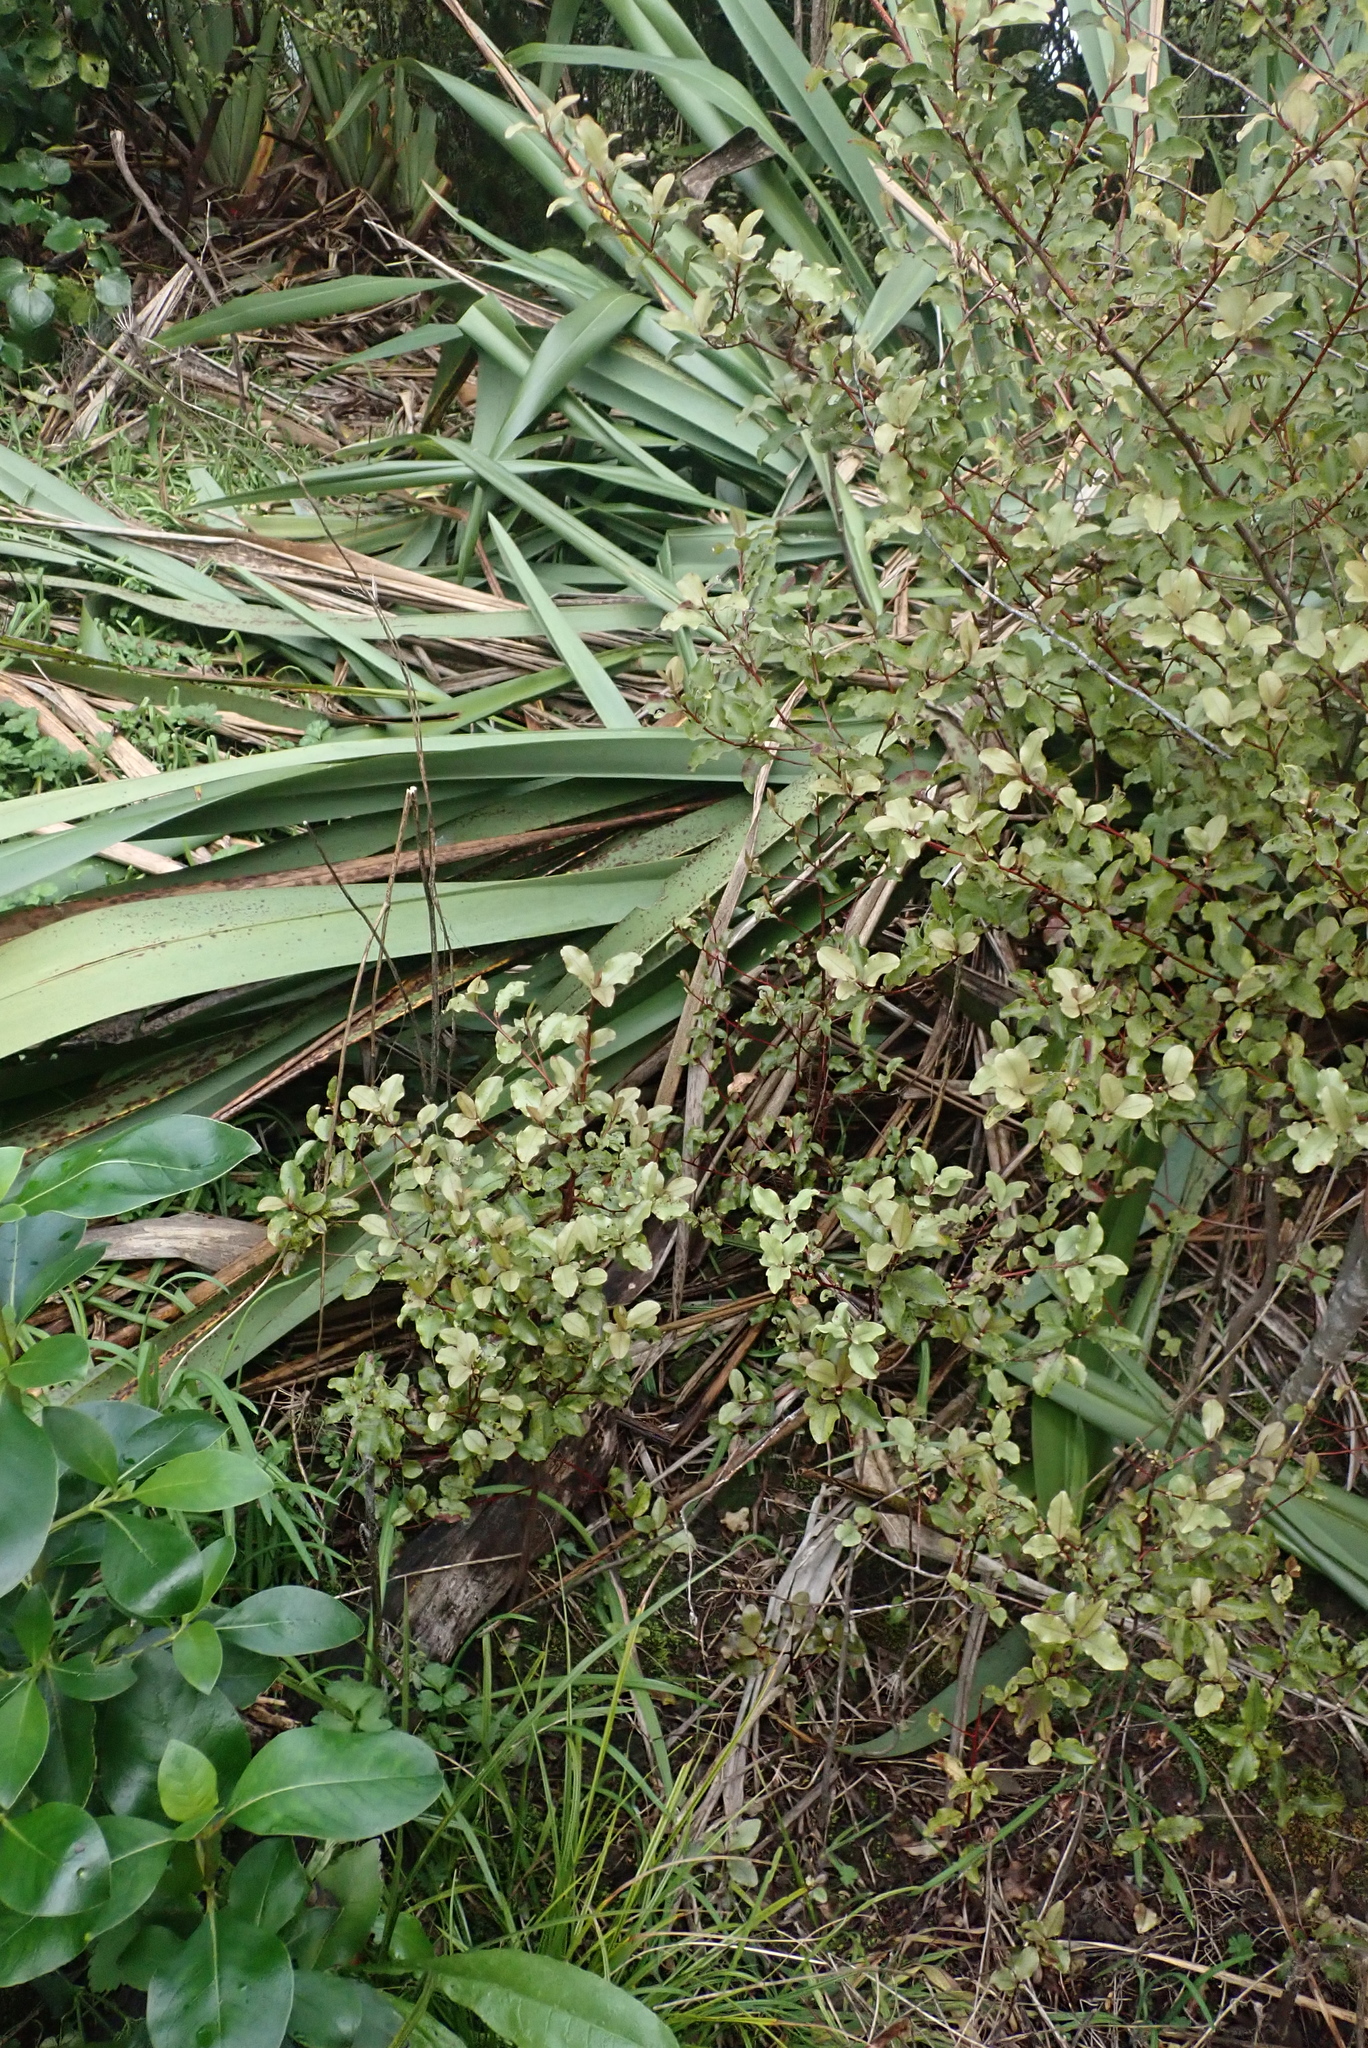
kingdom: Plantae
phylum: Tracheophyta
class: Magnoliopsida
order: Ericales
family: Primulaceae
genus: Myrsine
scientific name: Myrsine australis
